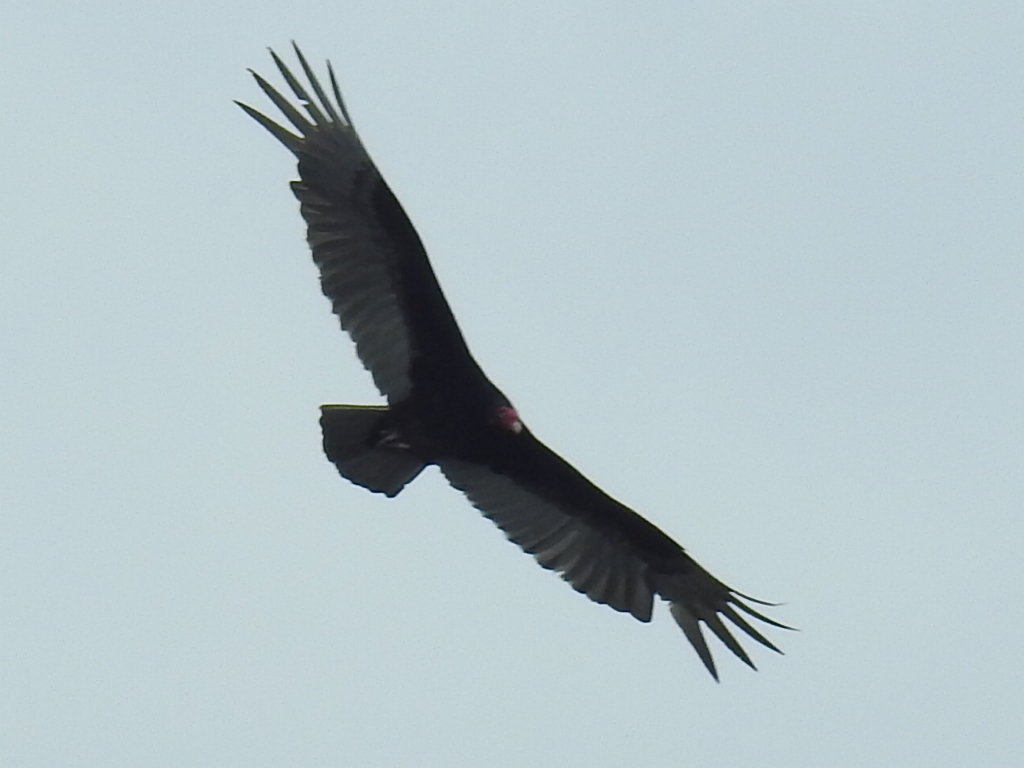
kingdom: Animalia
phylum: Chordata
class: Aves
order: Accipitriformes
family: Cathartidae
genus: Cathartes
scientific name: Cathartes aura
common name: Turkey vulture
